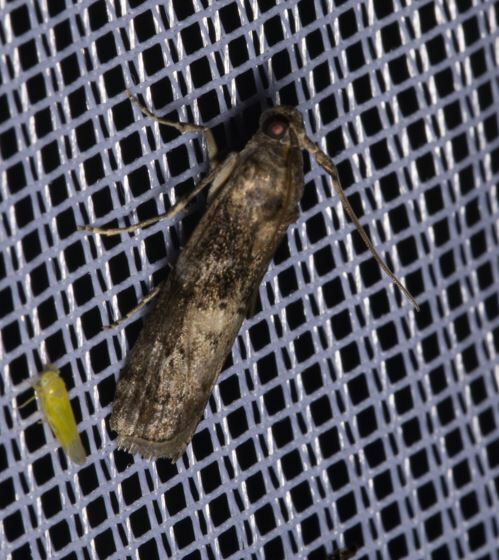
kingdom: Animalia
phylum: Arthropoda
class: Insecta
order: Lepidoptera
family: Pyralidae
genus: Phycita
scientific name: Phycita roborella
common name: Dotted oak knot-horn
